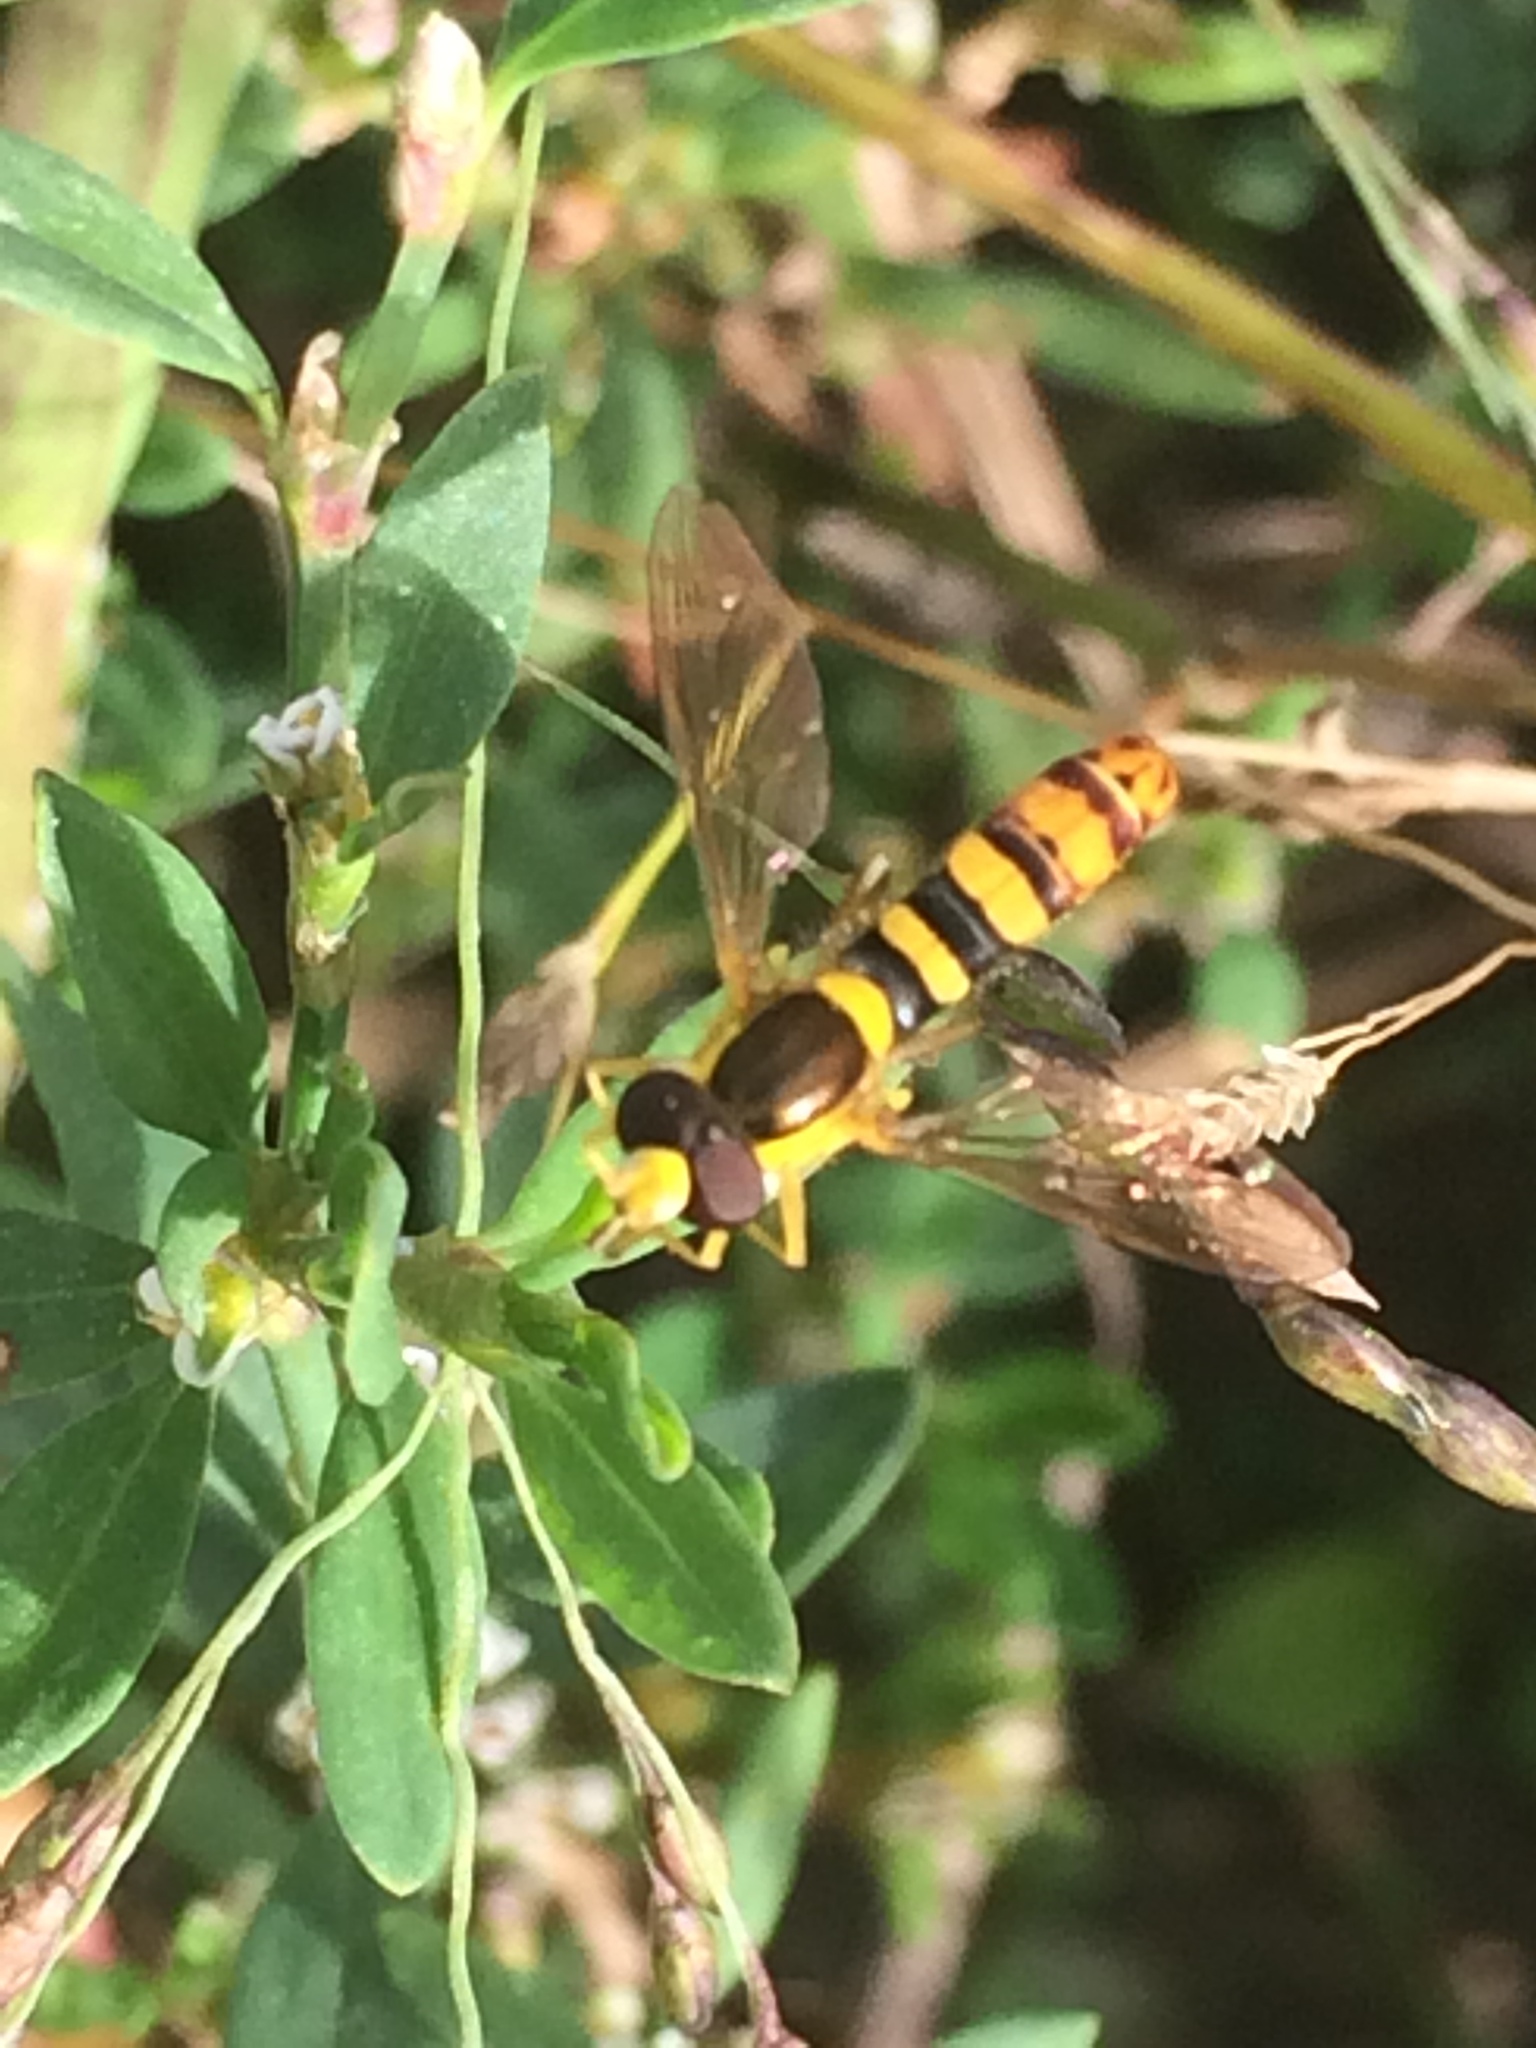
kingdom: Animalia
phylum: Arthropoda
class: Insecta
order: Diptera
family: Syrphidae
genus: Sphaerophoria
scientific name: Sphaerophoria
